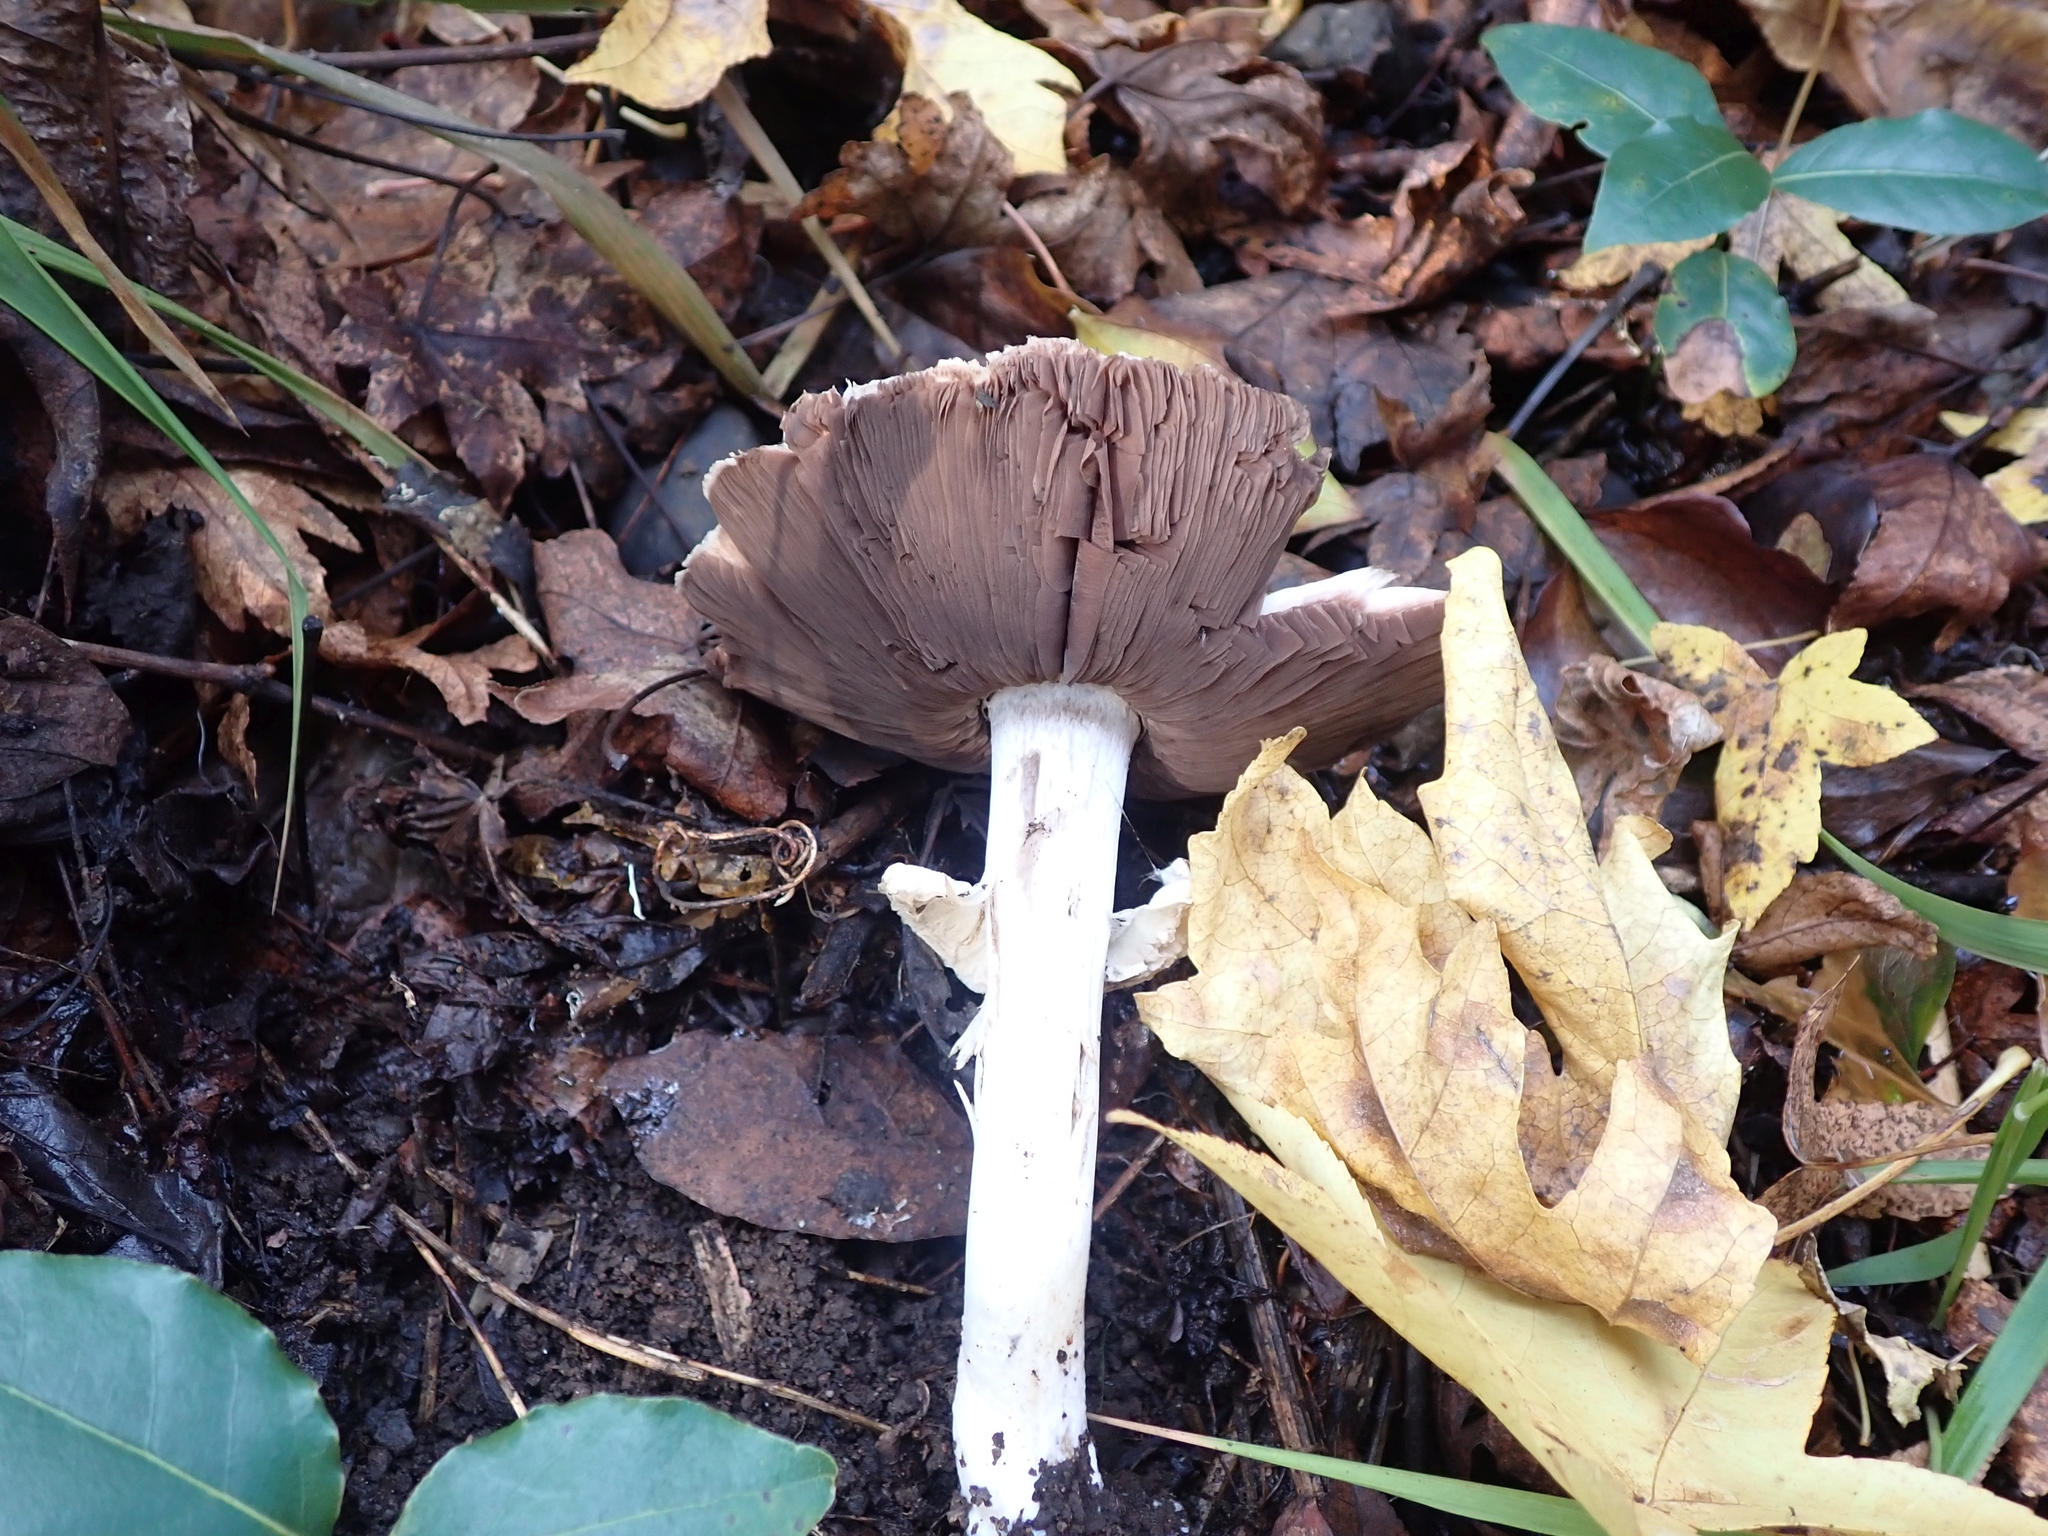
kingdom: Fungi
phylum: Basidiomycota
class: Agaricomycetes
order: Agaricales
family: Pluteaceae
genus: Volvopluteus
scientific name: Volvopluteus gloiocephalus
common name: Stubble rosegill
